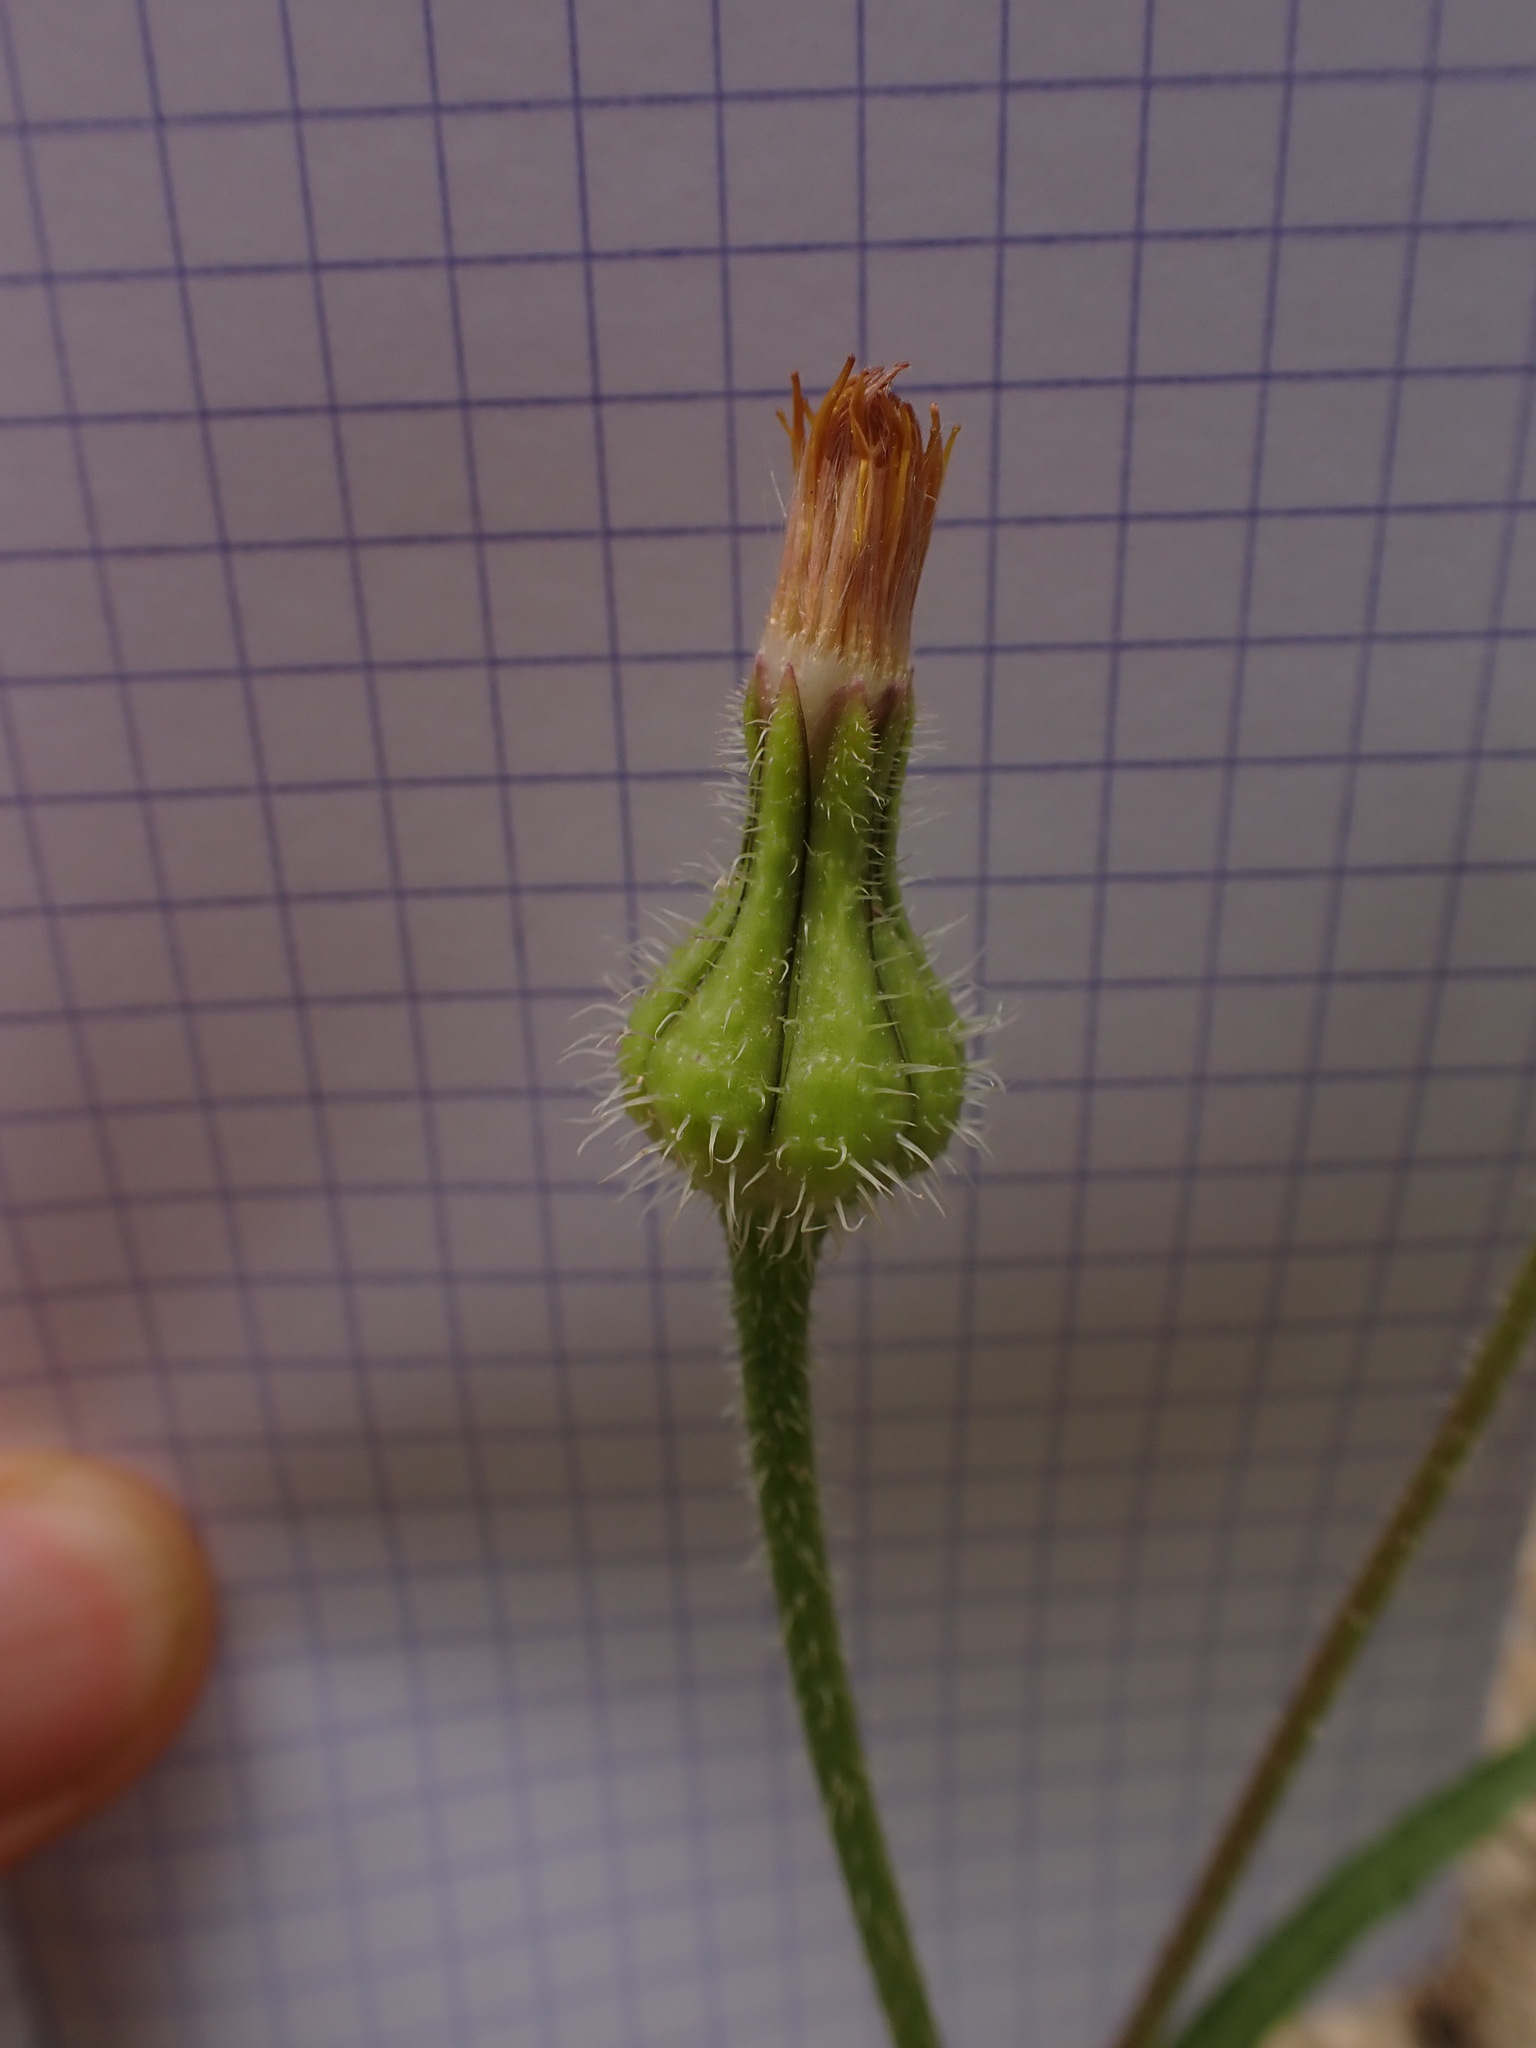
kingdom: Plantae
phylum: Tracheophyta
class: Magnoliopsida
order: Asterales
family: Asteraceae
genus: Urospermum
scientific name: Urospermum picroides
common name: False hawkbit
